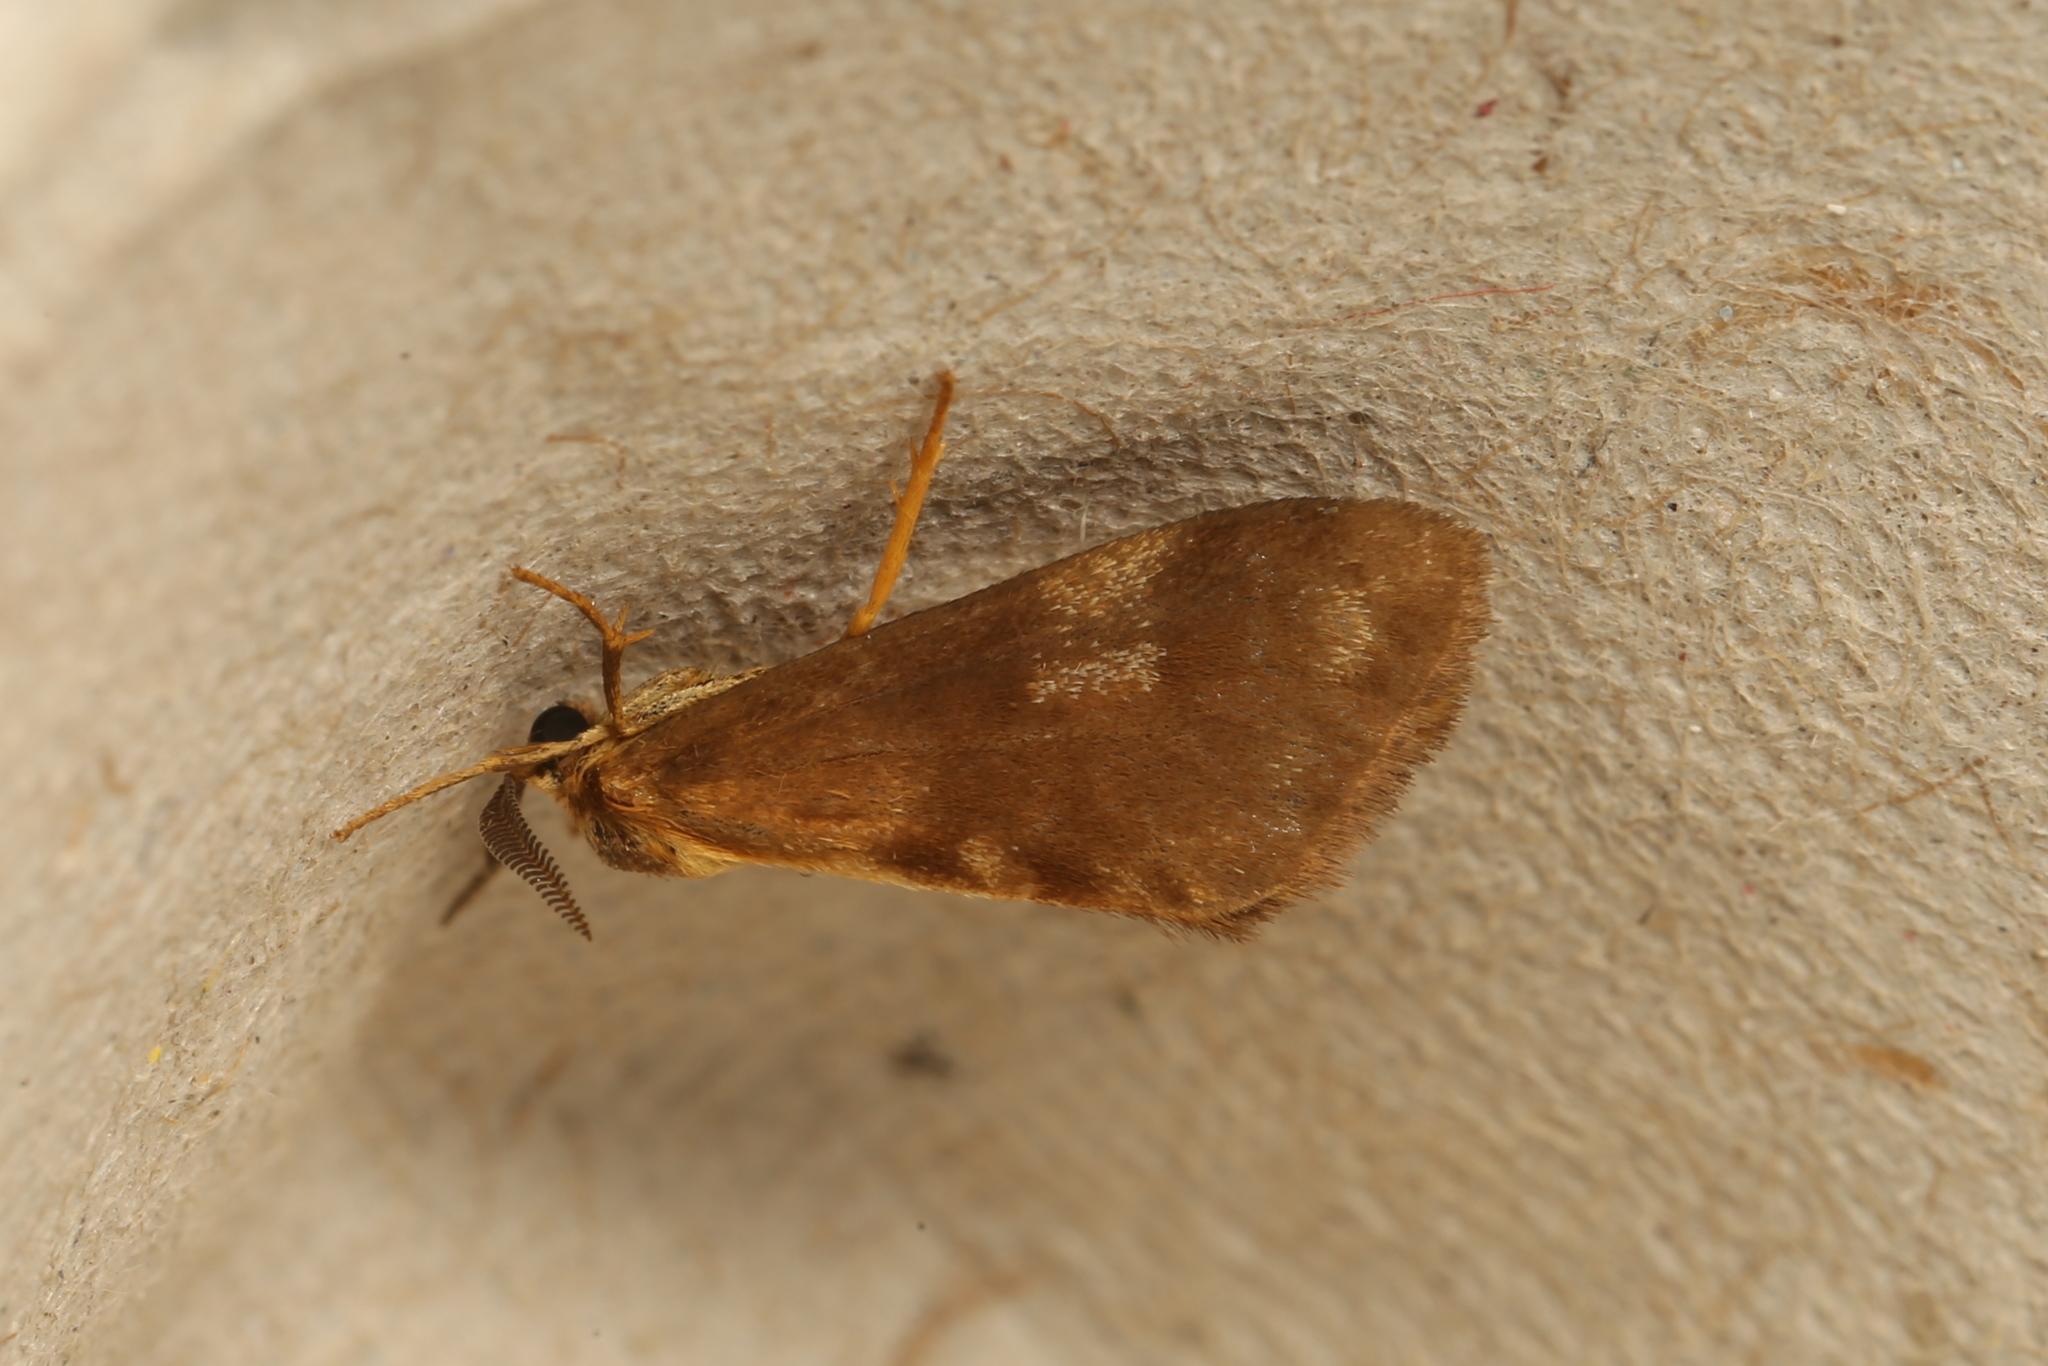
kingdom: Animalia
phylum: Arthropoda
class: Insecta
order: Lepidoptera
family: Erebidae
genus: Anestia
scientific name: Anestia semiochrea
